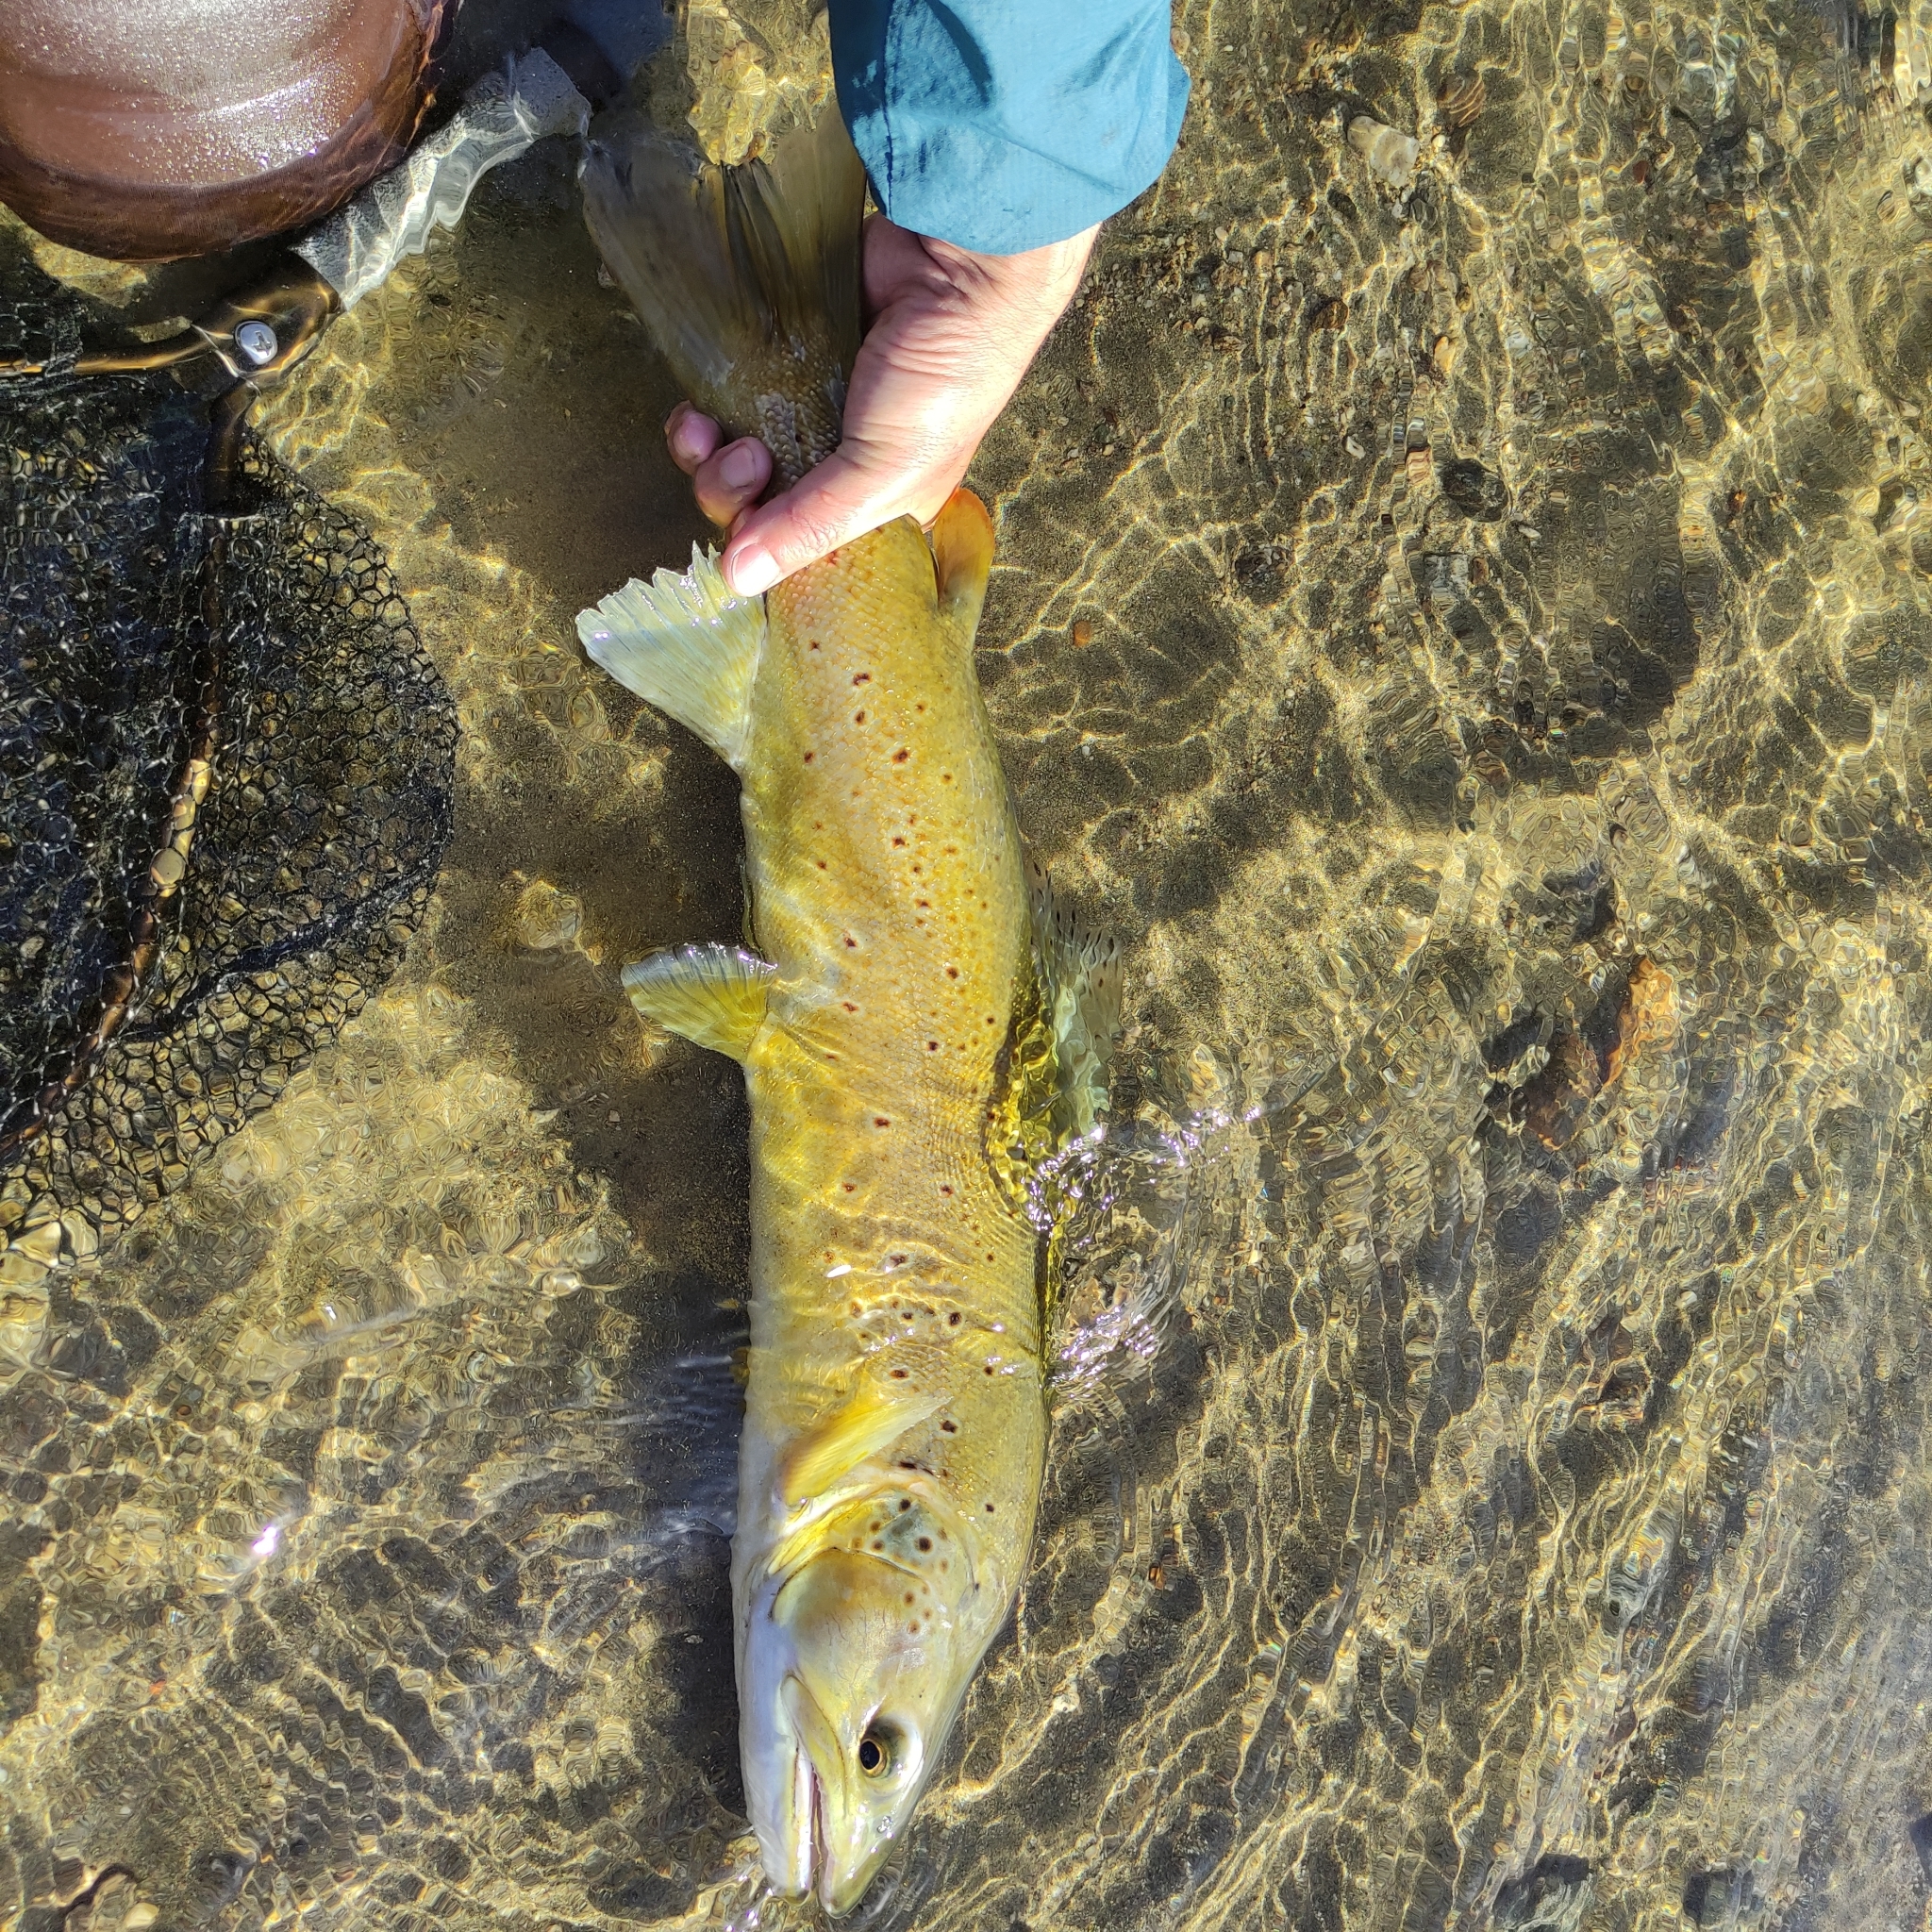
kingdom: Animalia
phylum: Chordata
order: Salmoniformes
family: Salmonidae
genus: Salmo
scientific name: Salmo trutta
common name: Brown trout
